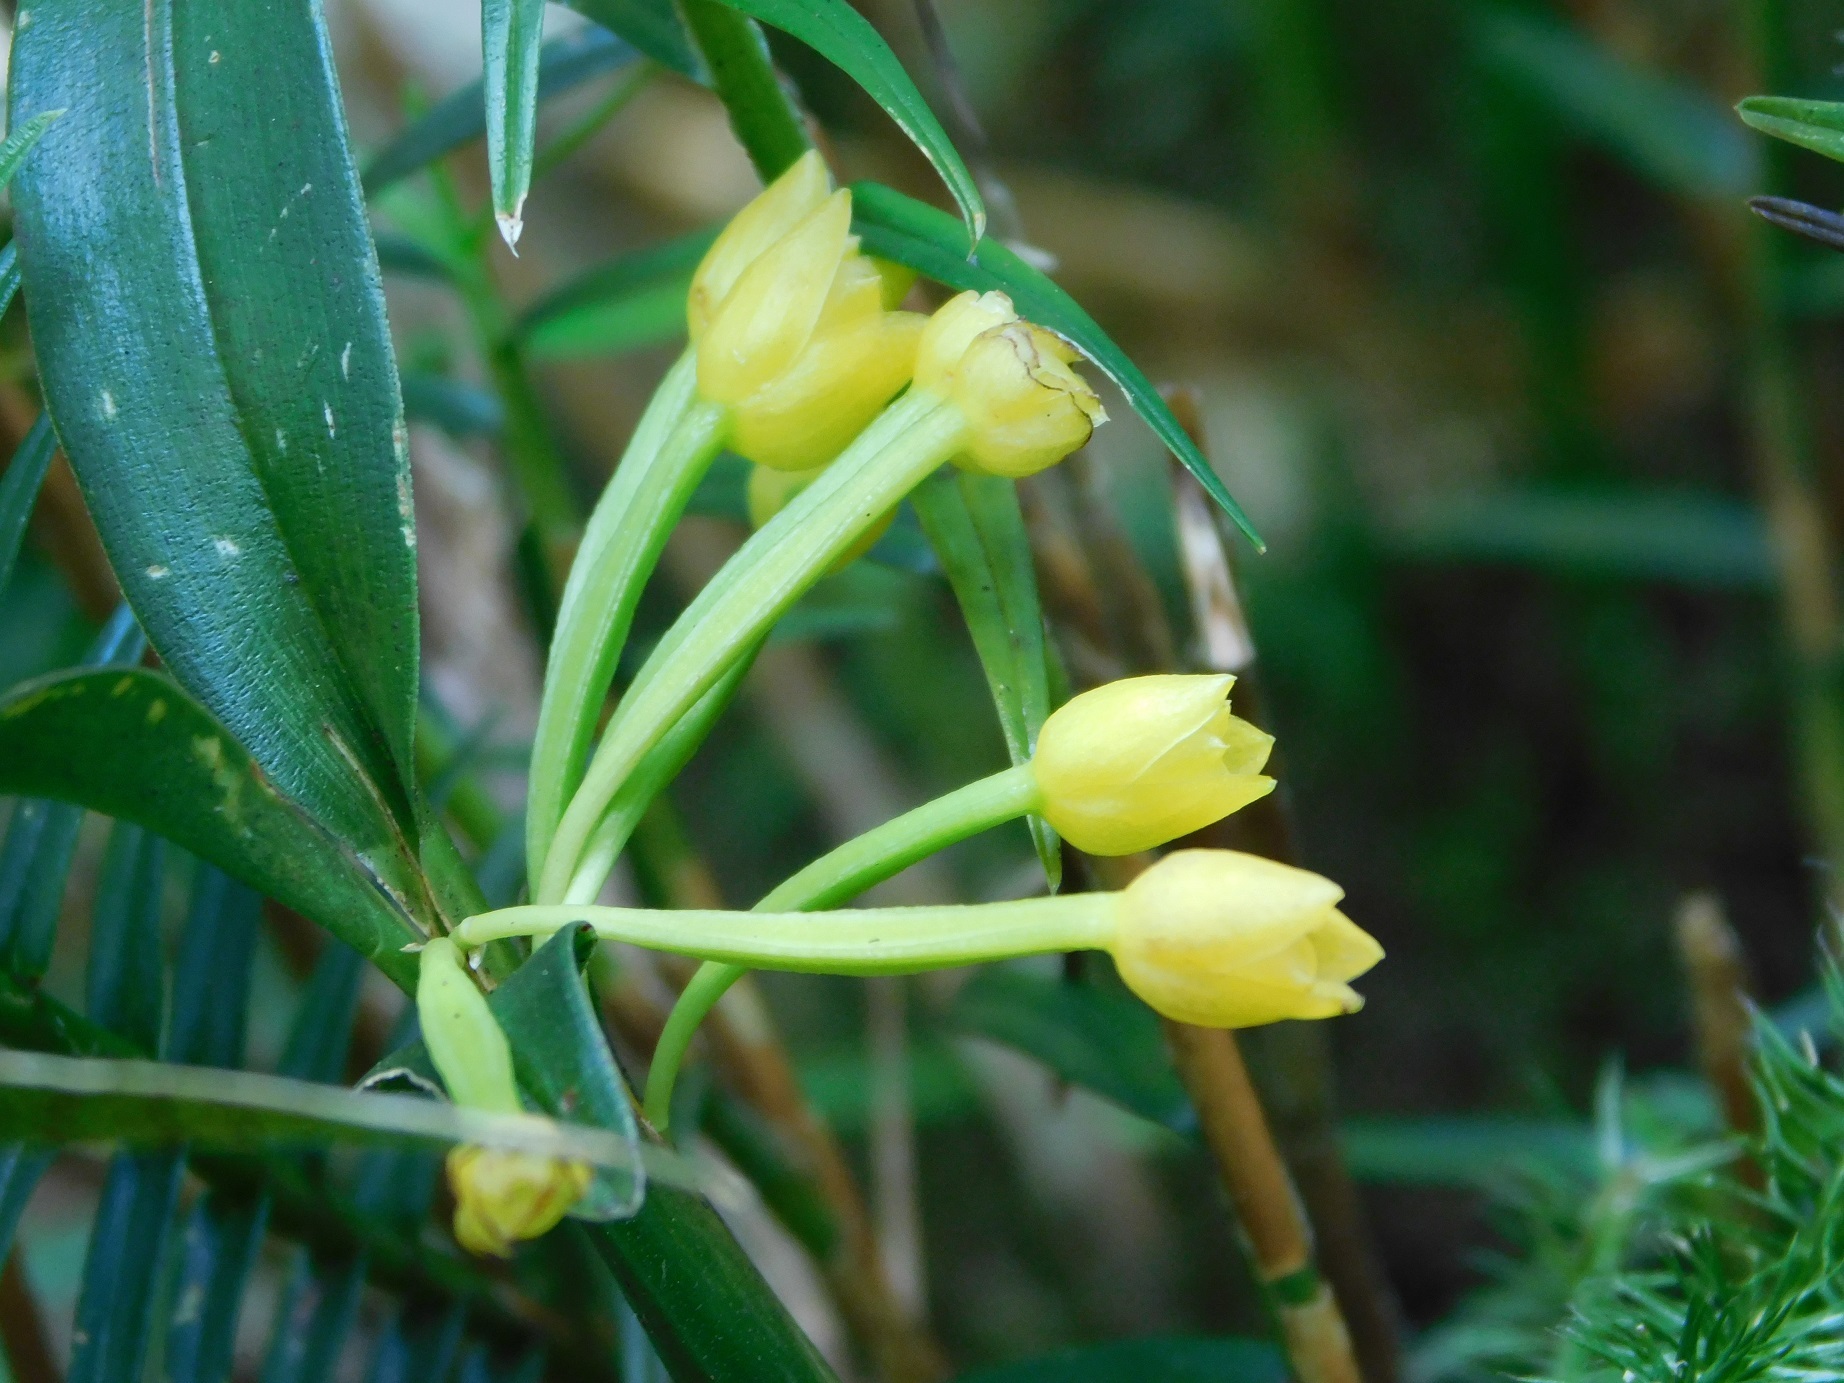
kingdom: Plantae
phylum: Tracheophyta
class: Liliopsida
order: Asparagales
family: Orchidaceae
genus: Maxillaria
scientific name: Maxillaria alticola
